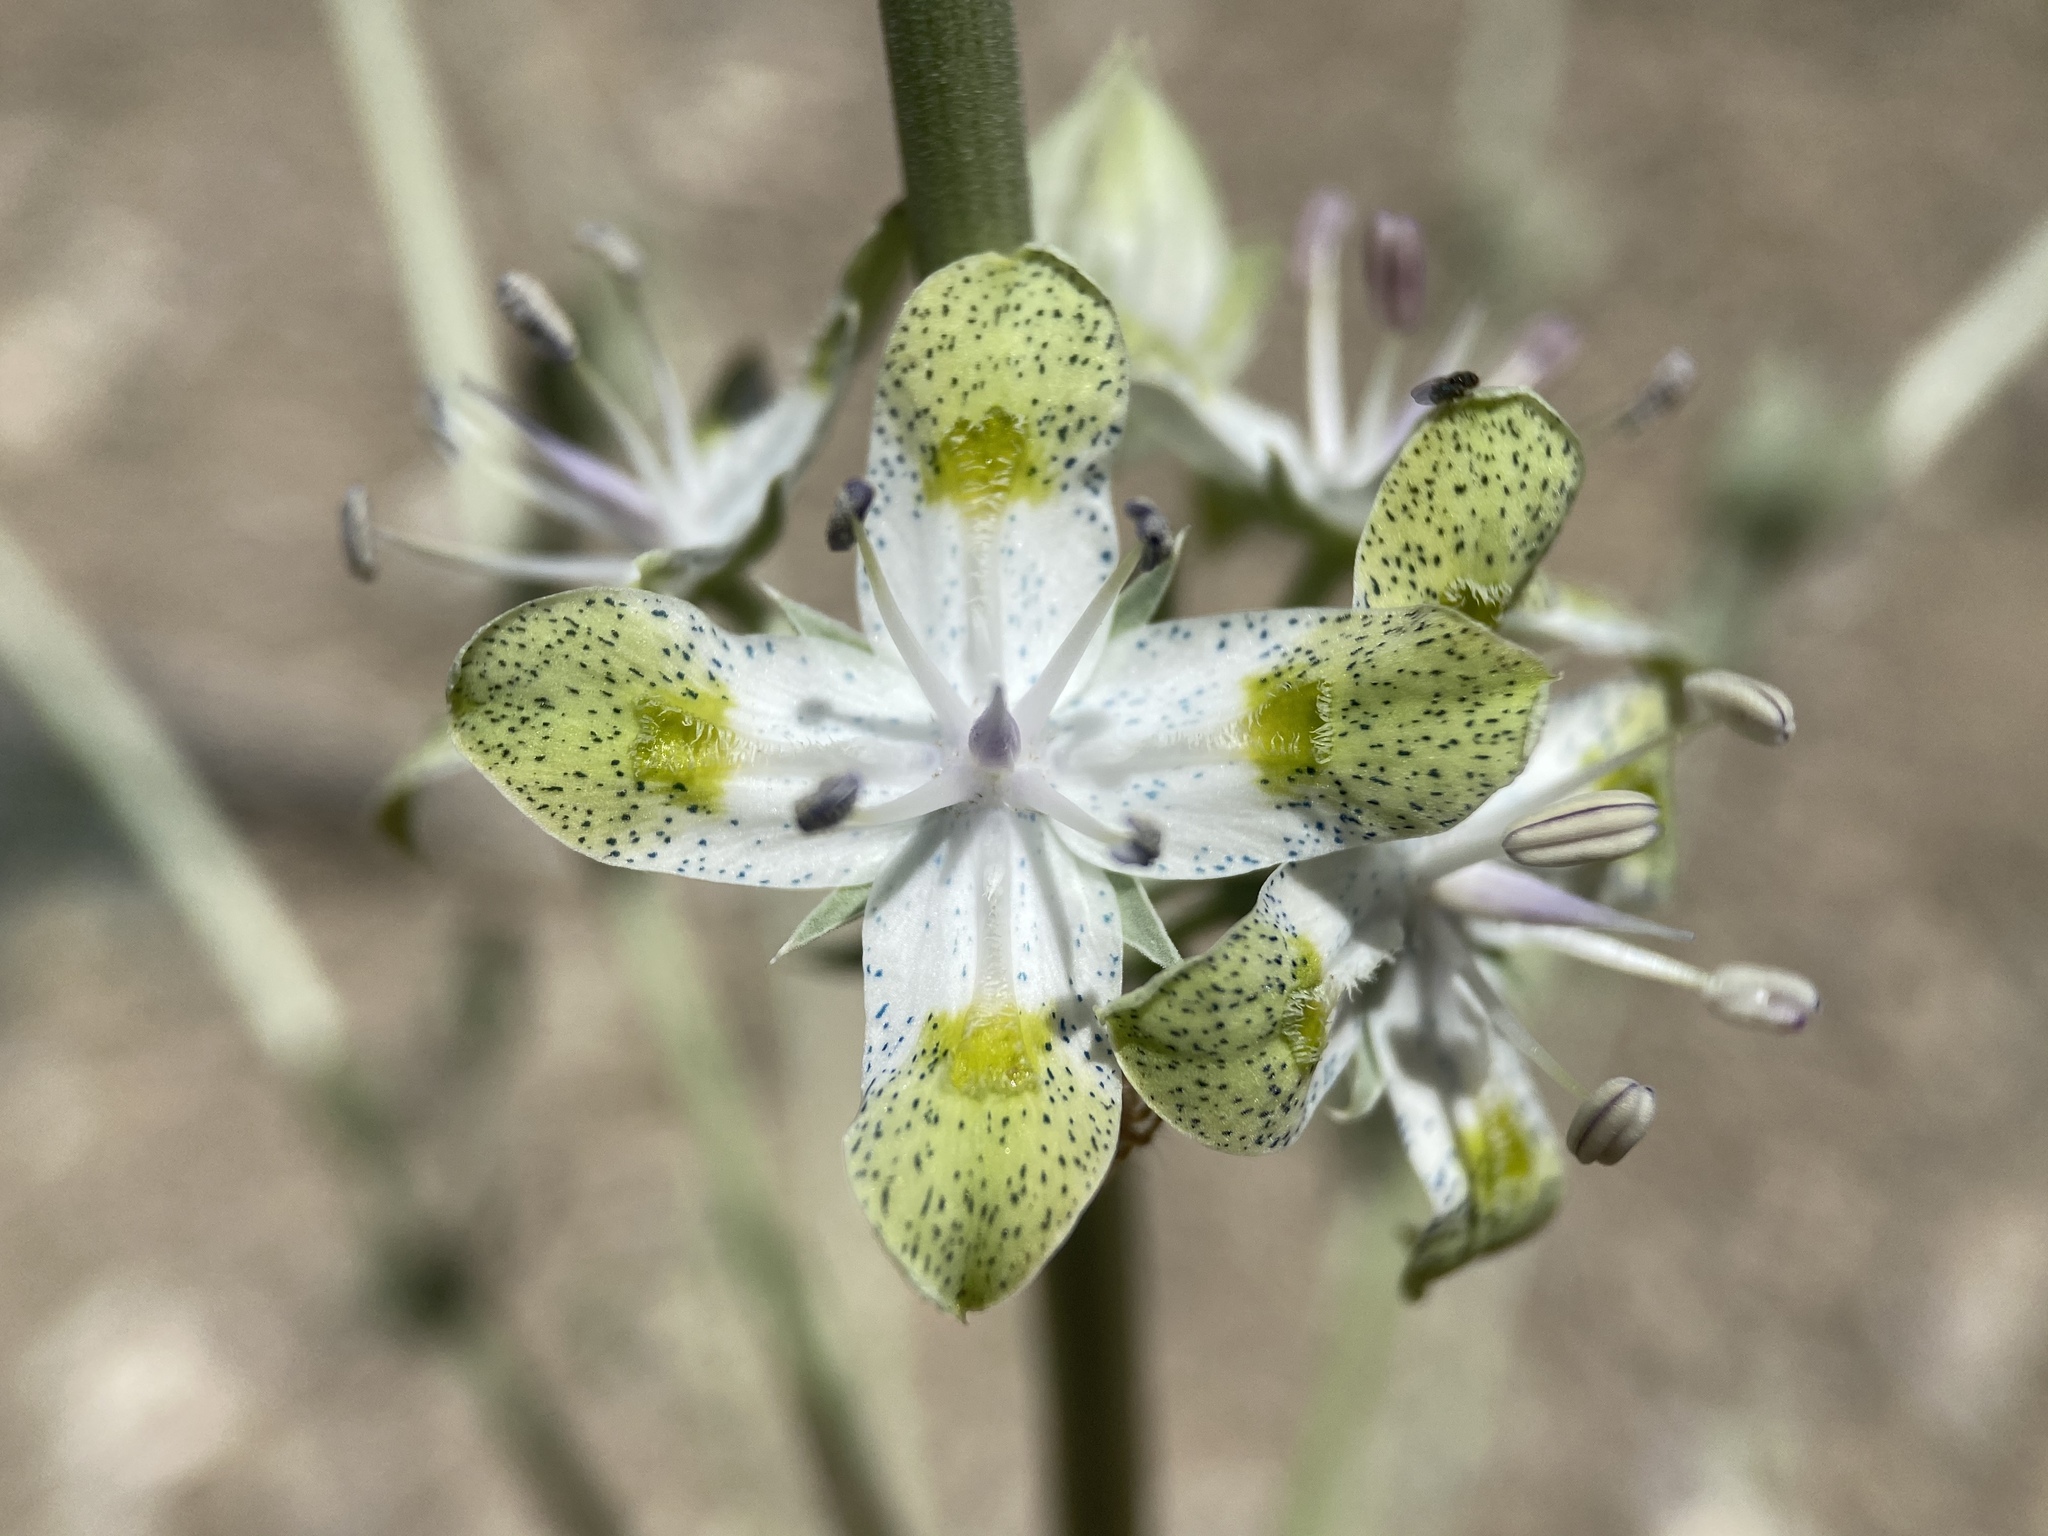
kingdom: Plantae
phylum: Tracheophyta
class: Magnoliopsida
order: Gentianales
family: Gentianaceae
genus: Frasera
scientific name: Frasera albomarginata
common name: Desert frasera
